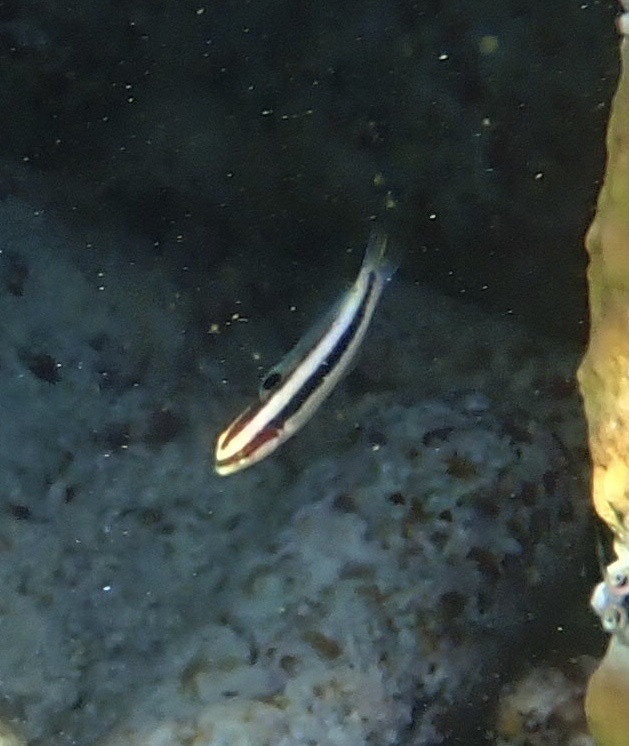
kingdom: Animalia
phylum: Chordata
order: Perciformes
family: Labridae
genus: Thalassoma
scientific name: Thalassoma bifasciatum
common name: Bluehead wrasse
